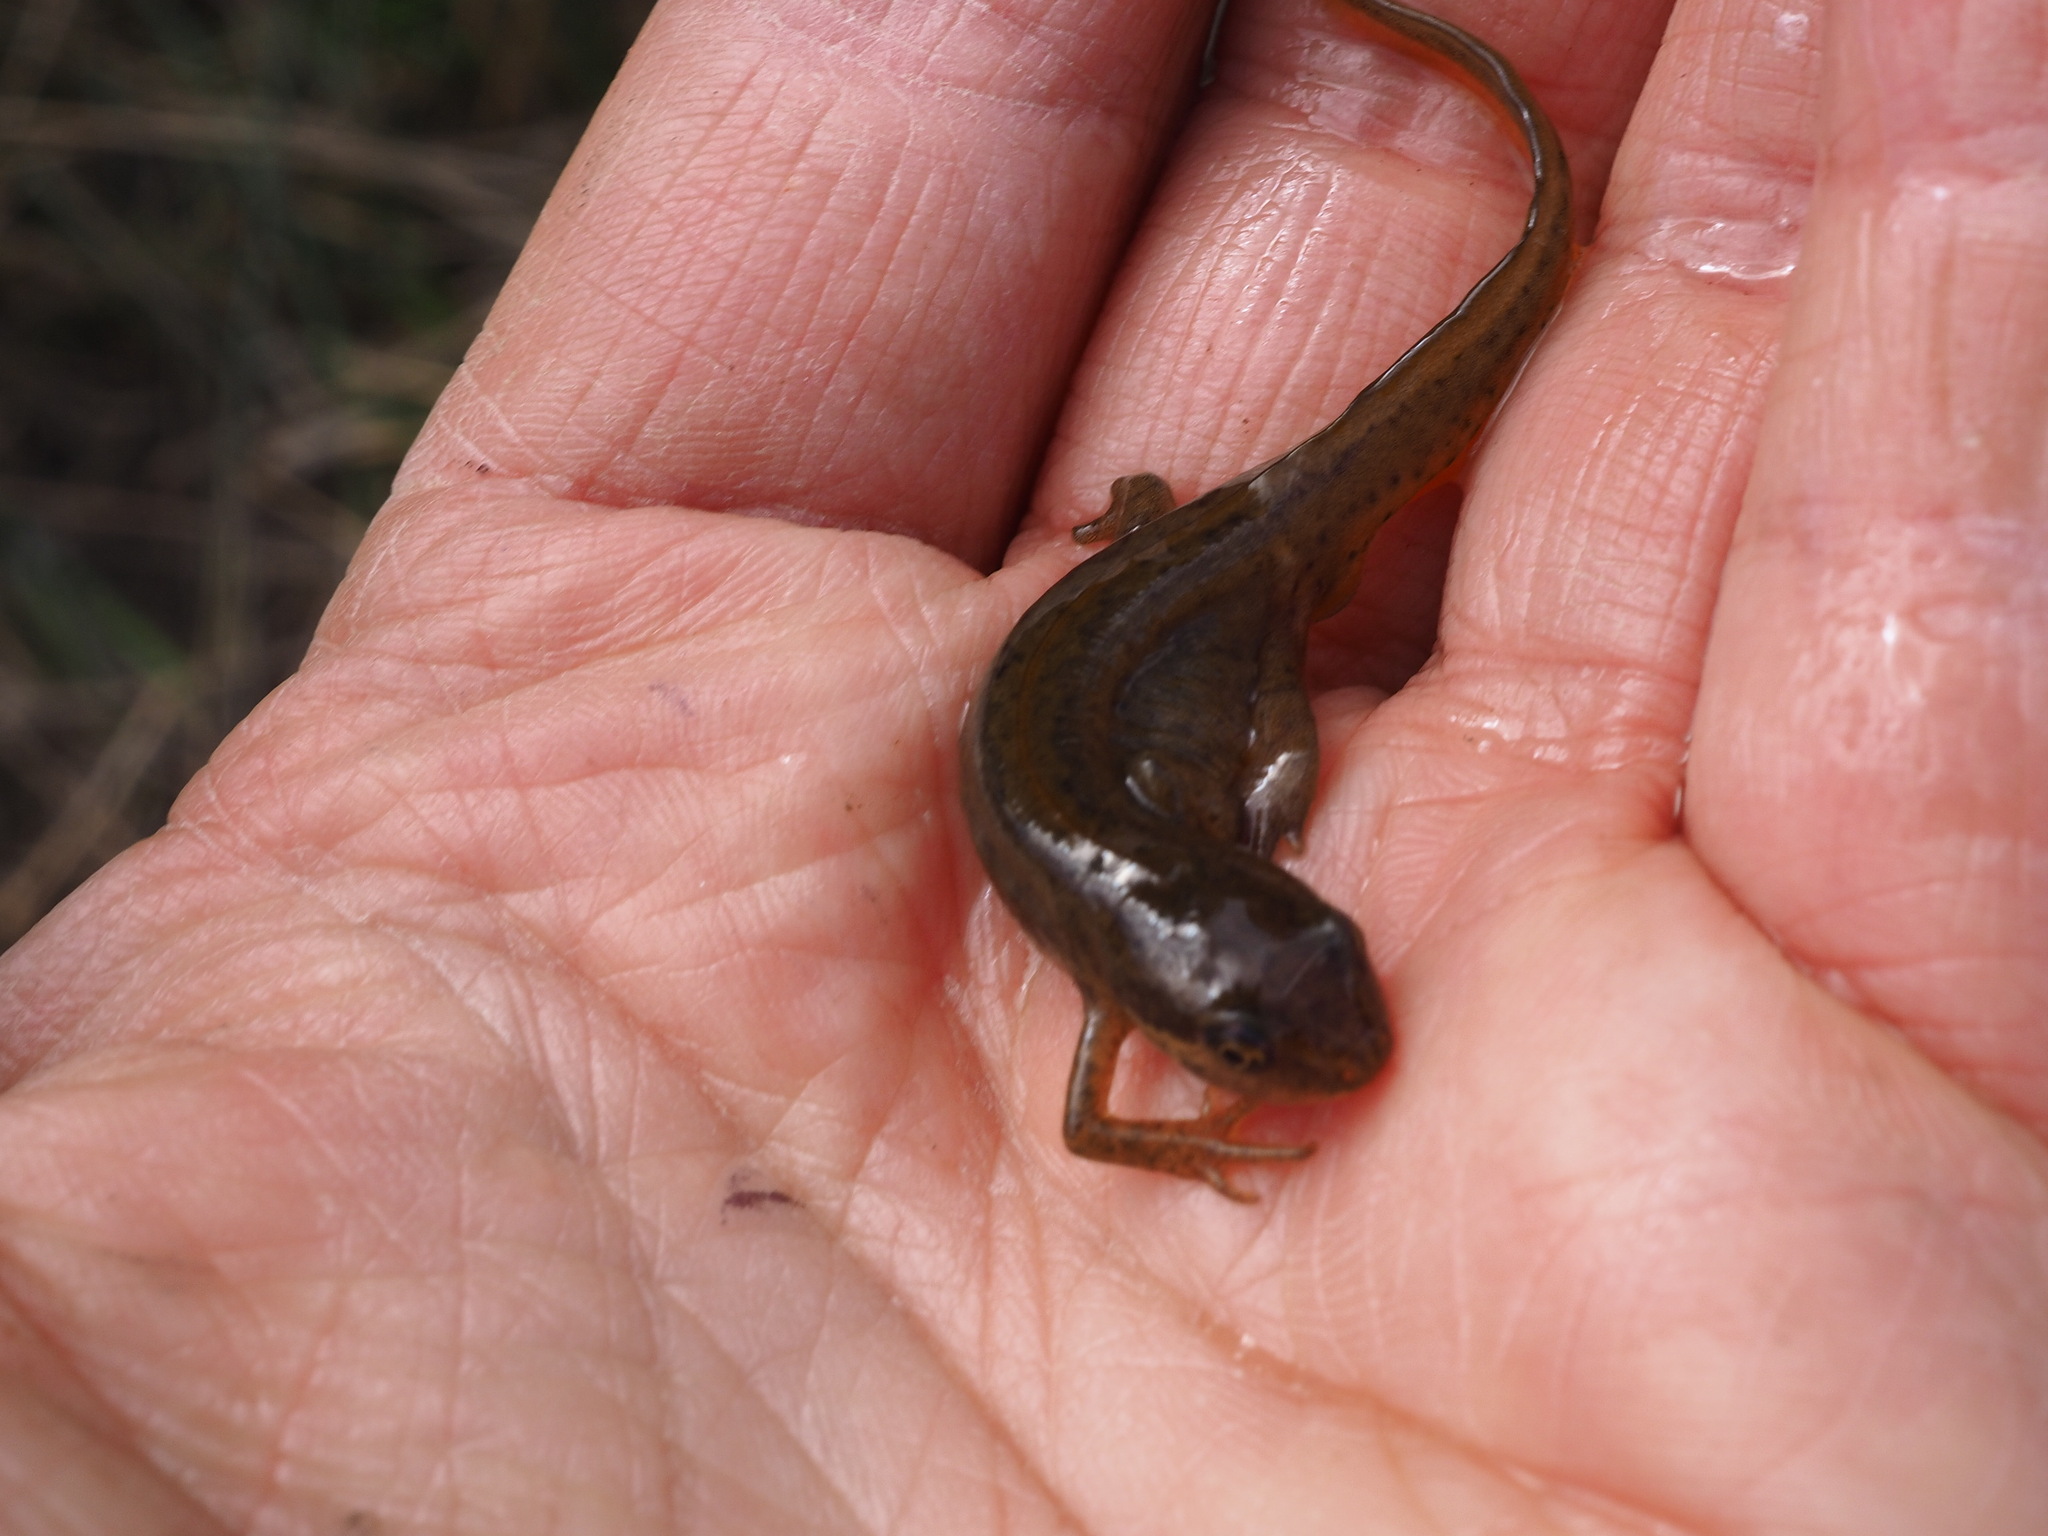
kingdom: Animalia
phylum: Chordata
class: Amphibia
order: Caudata
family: Salamandridae
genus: Lissotriton
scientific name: Lissotriton helveticus
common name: Palmate newt
